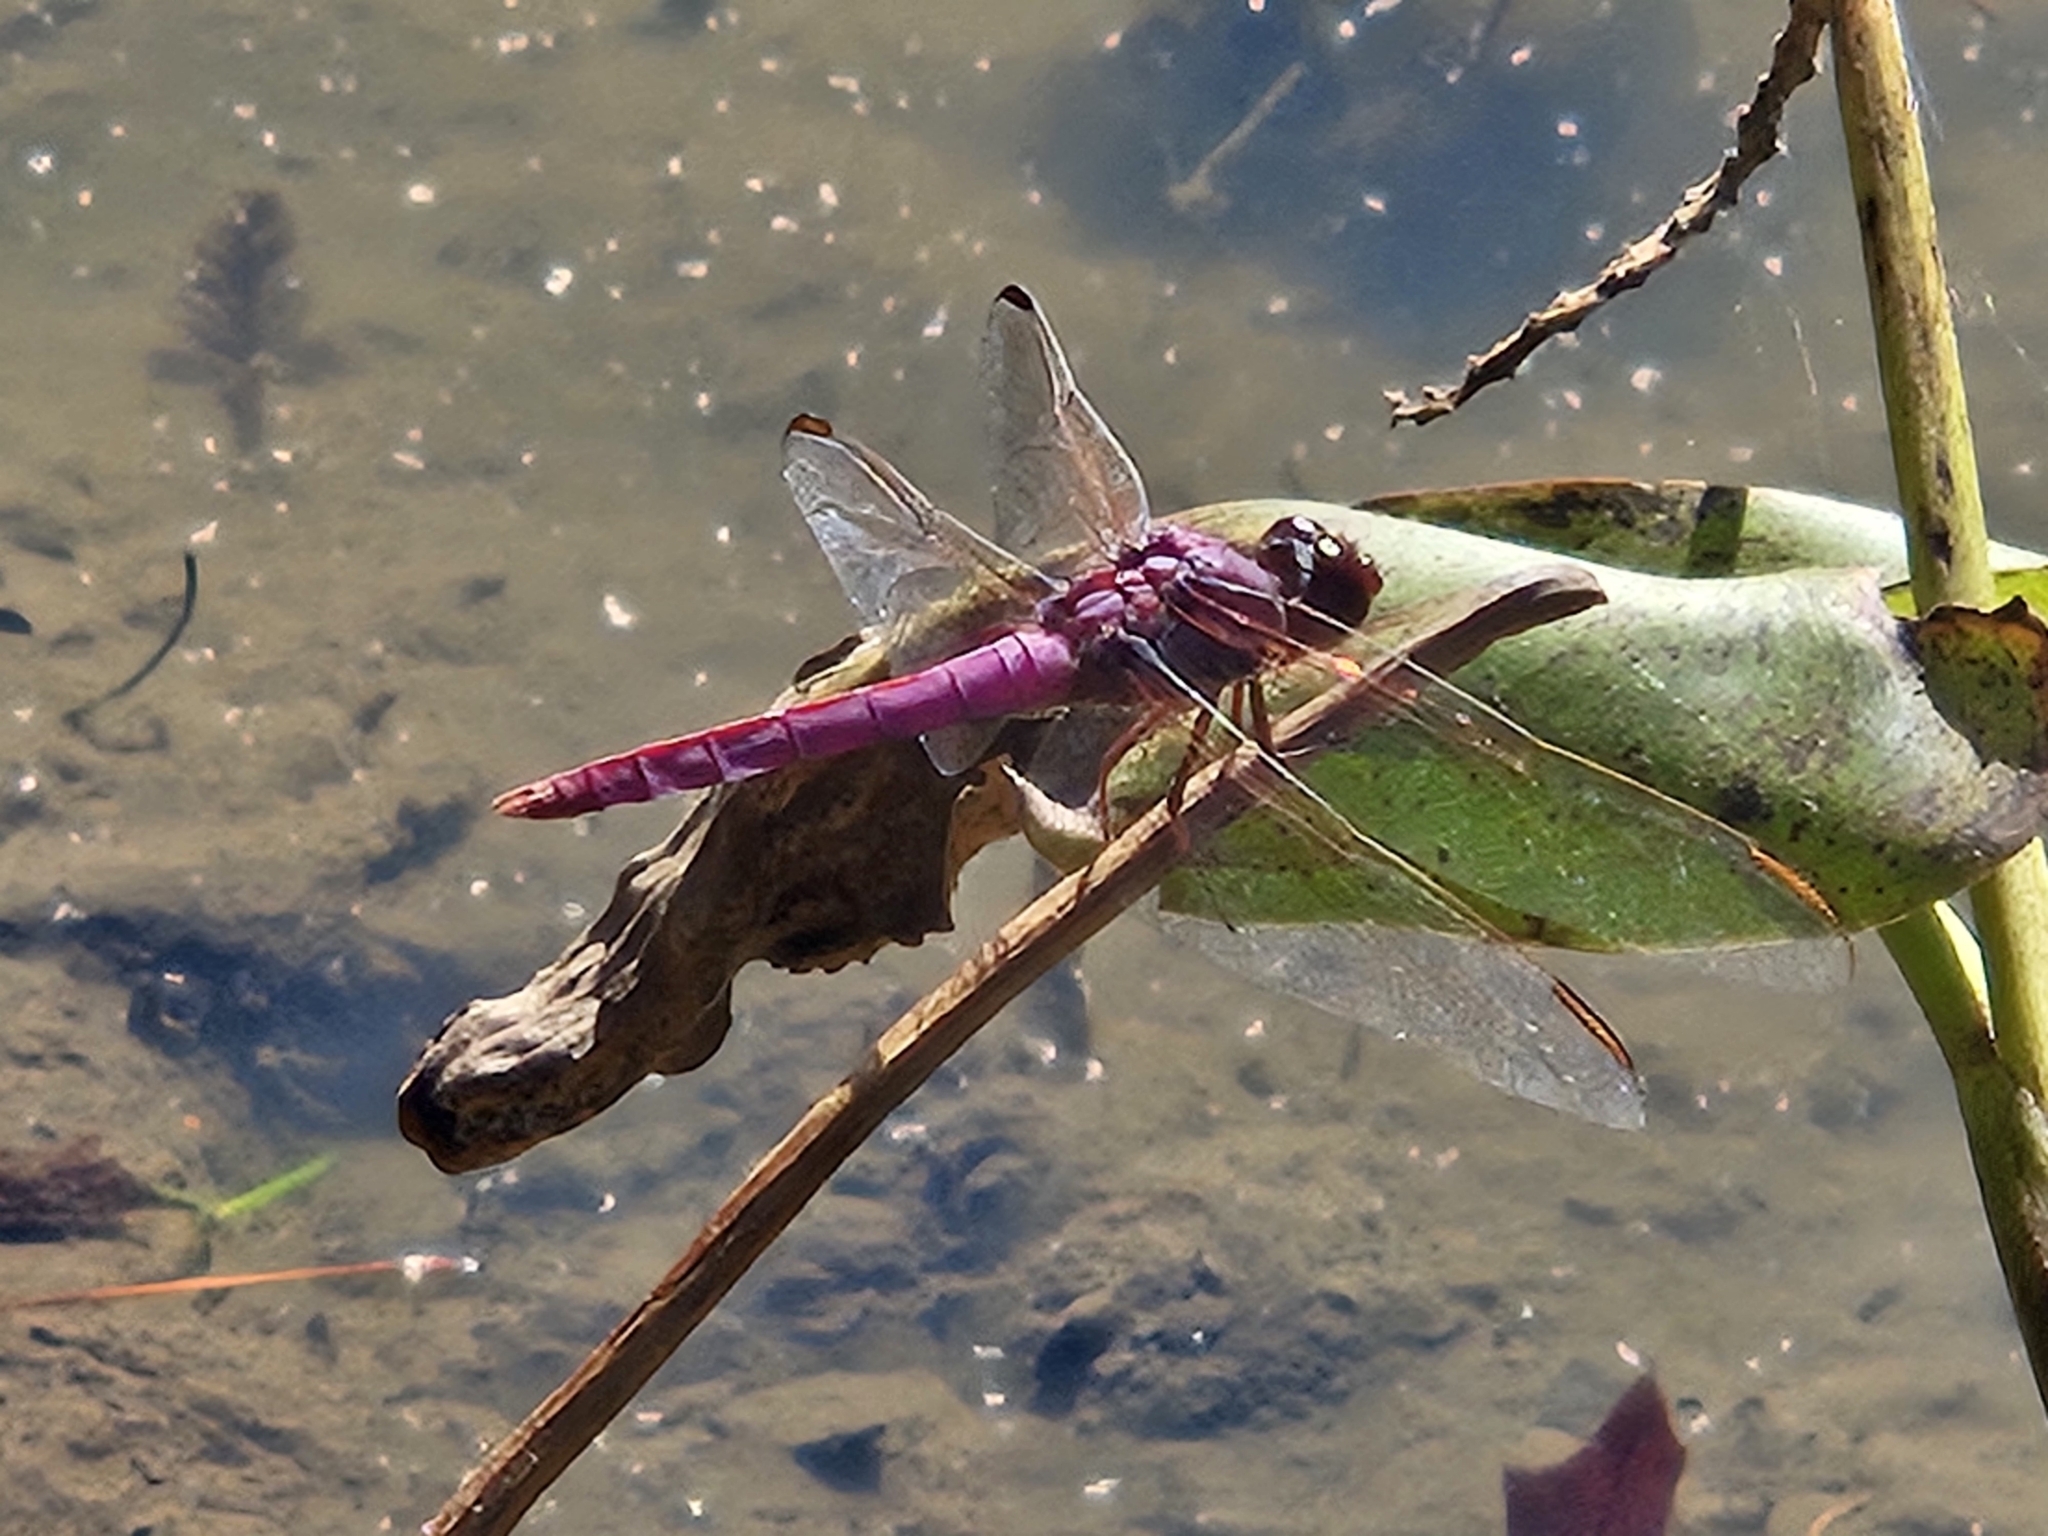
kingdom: Animalia
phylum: Arthropoda
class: Insecta
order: Odonata
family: Libellulidae
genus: Orthemis
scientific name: Orthemis ferruginea
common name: Roseate skimmer
